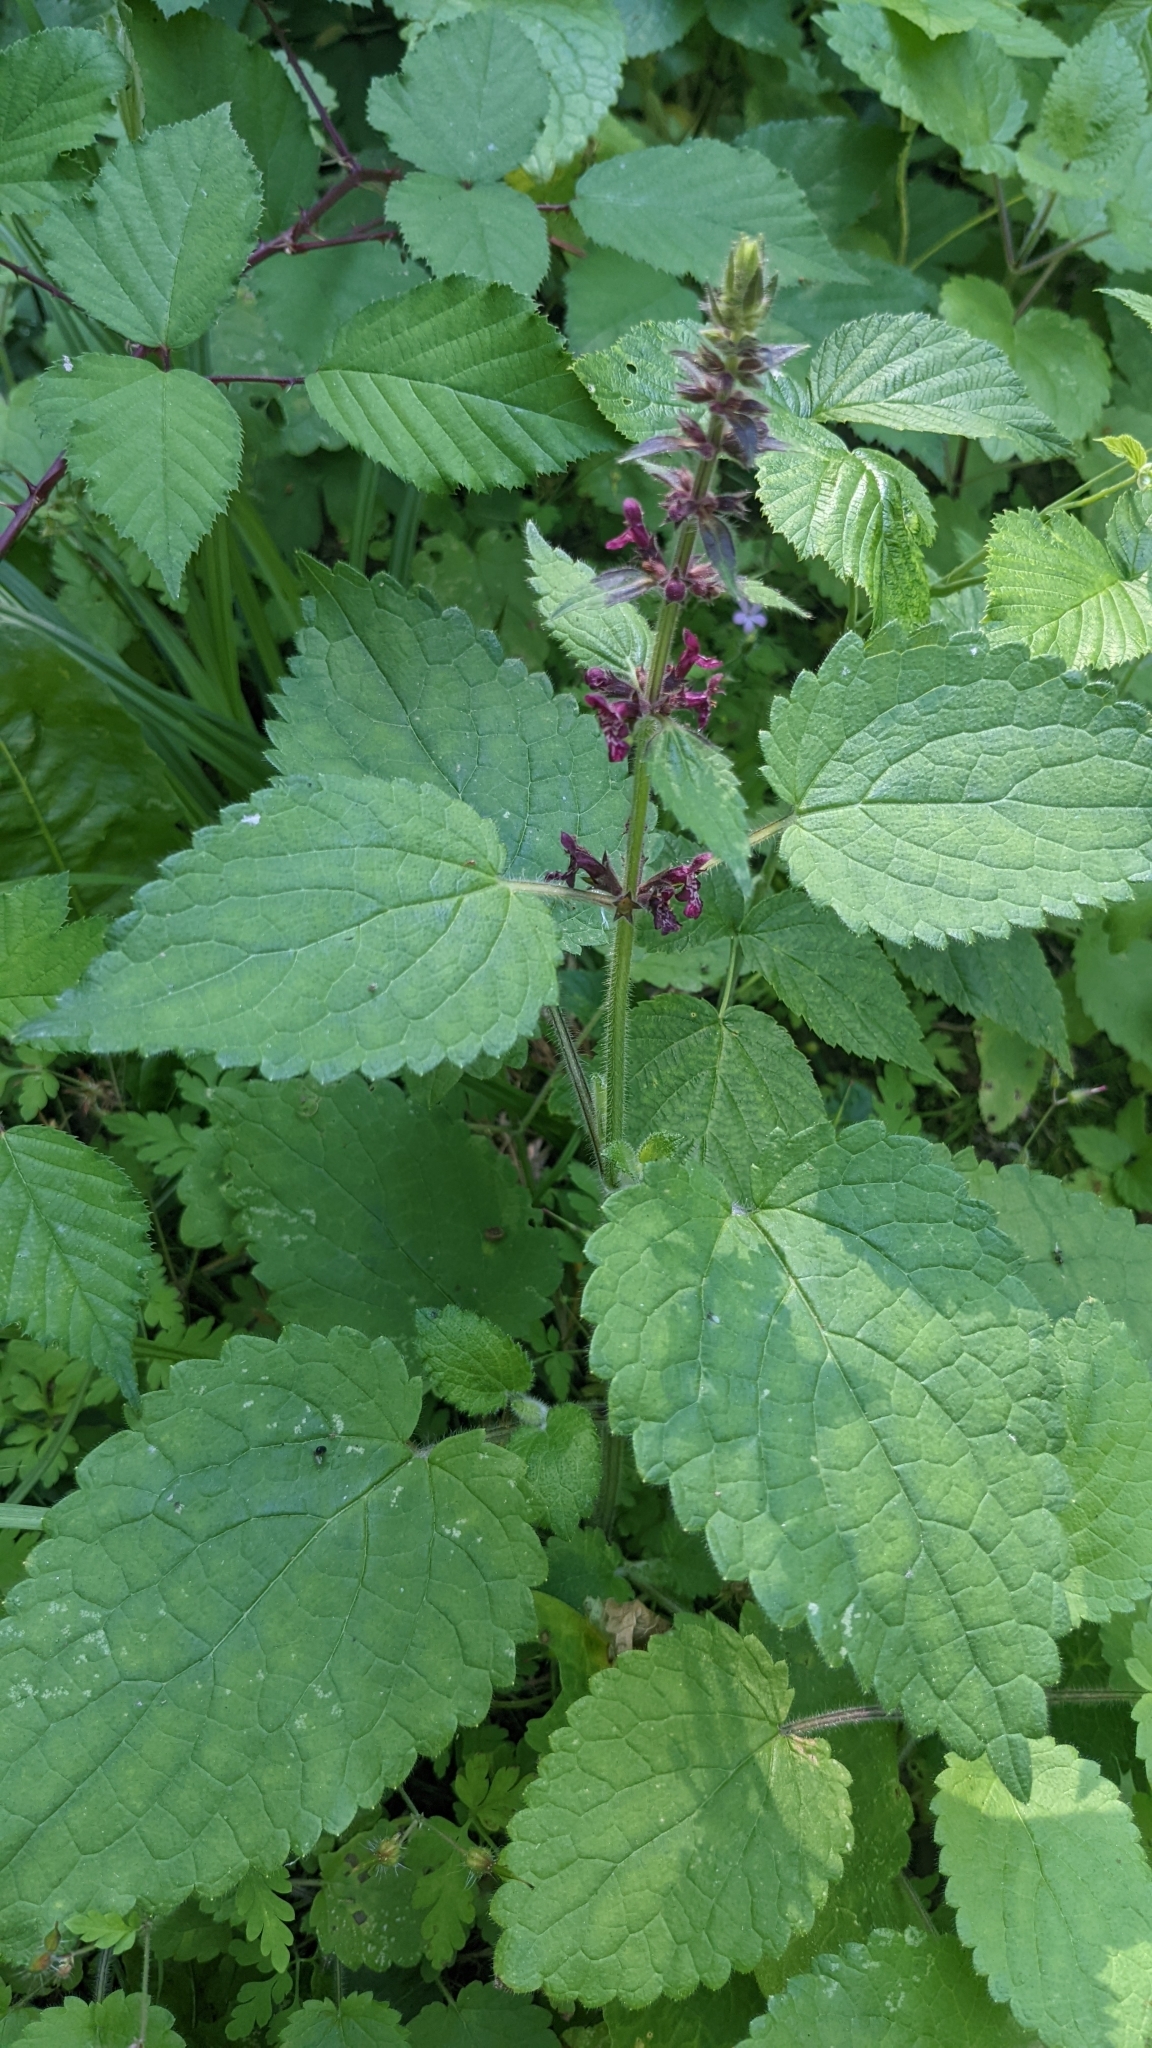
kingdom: Plantae
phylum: Tracheophyta
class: Magnoliopsida
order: Lamiales
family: Lamiaceae
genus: Stachys
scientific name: Stachys sylvatica
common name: Hedge woundwort
